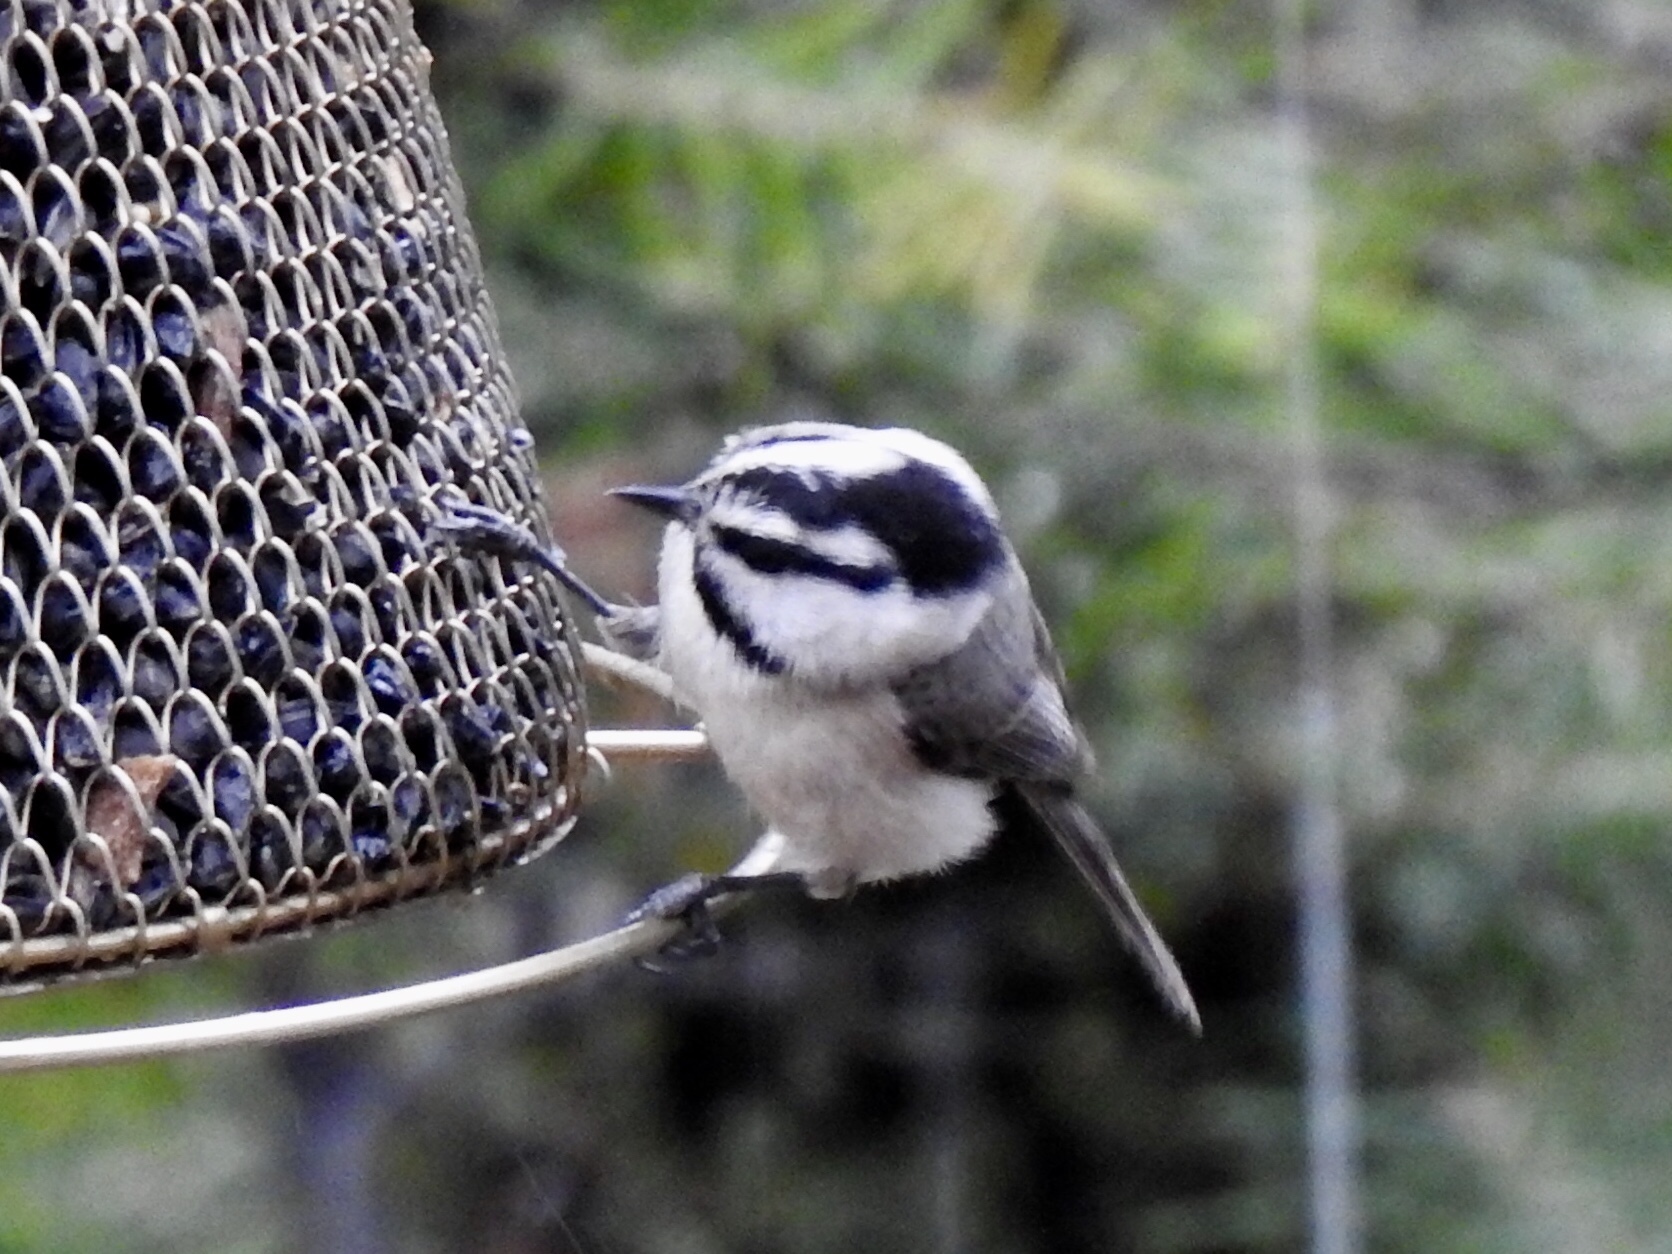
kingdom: Animalia
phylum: Chordata
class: Aves
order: Passeriformes
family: Paridae
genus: Poecile
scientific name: Poecile gambeli
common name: Mountain chickadee
